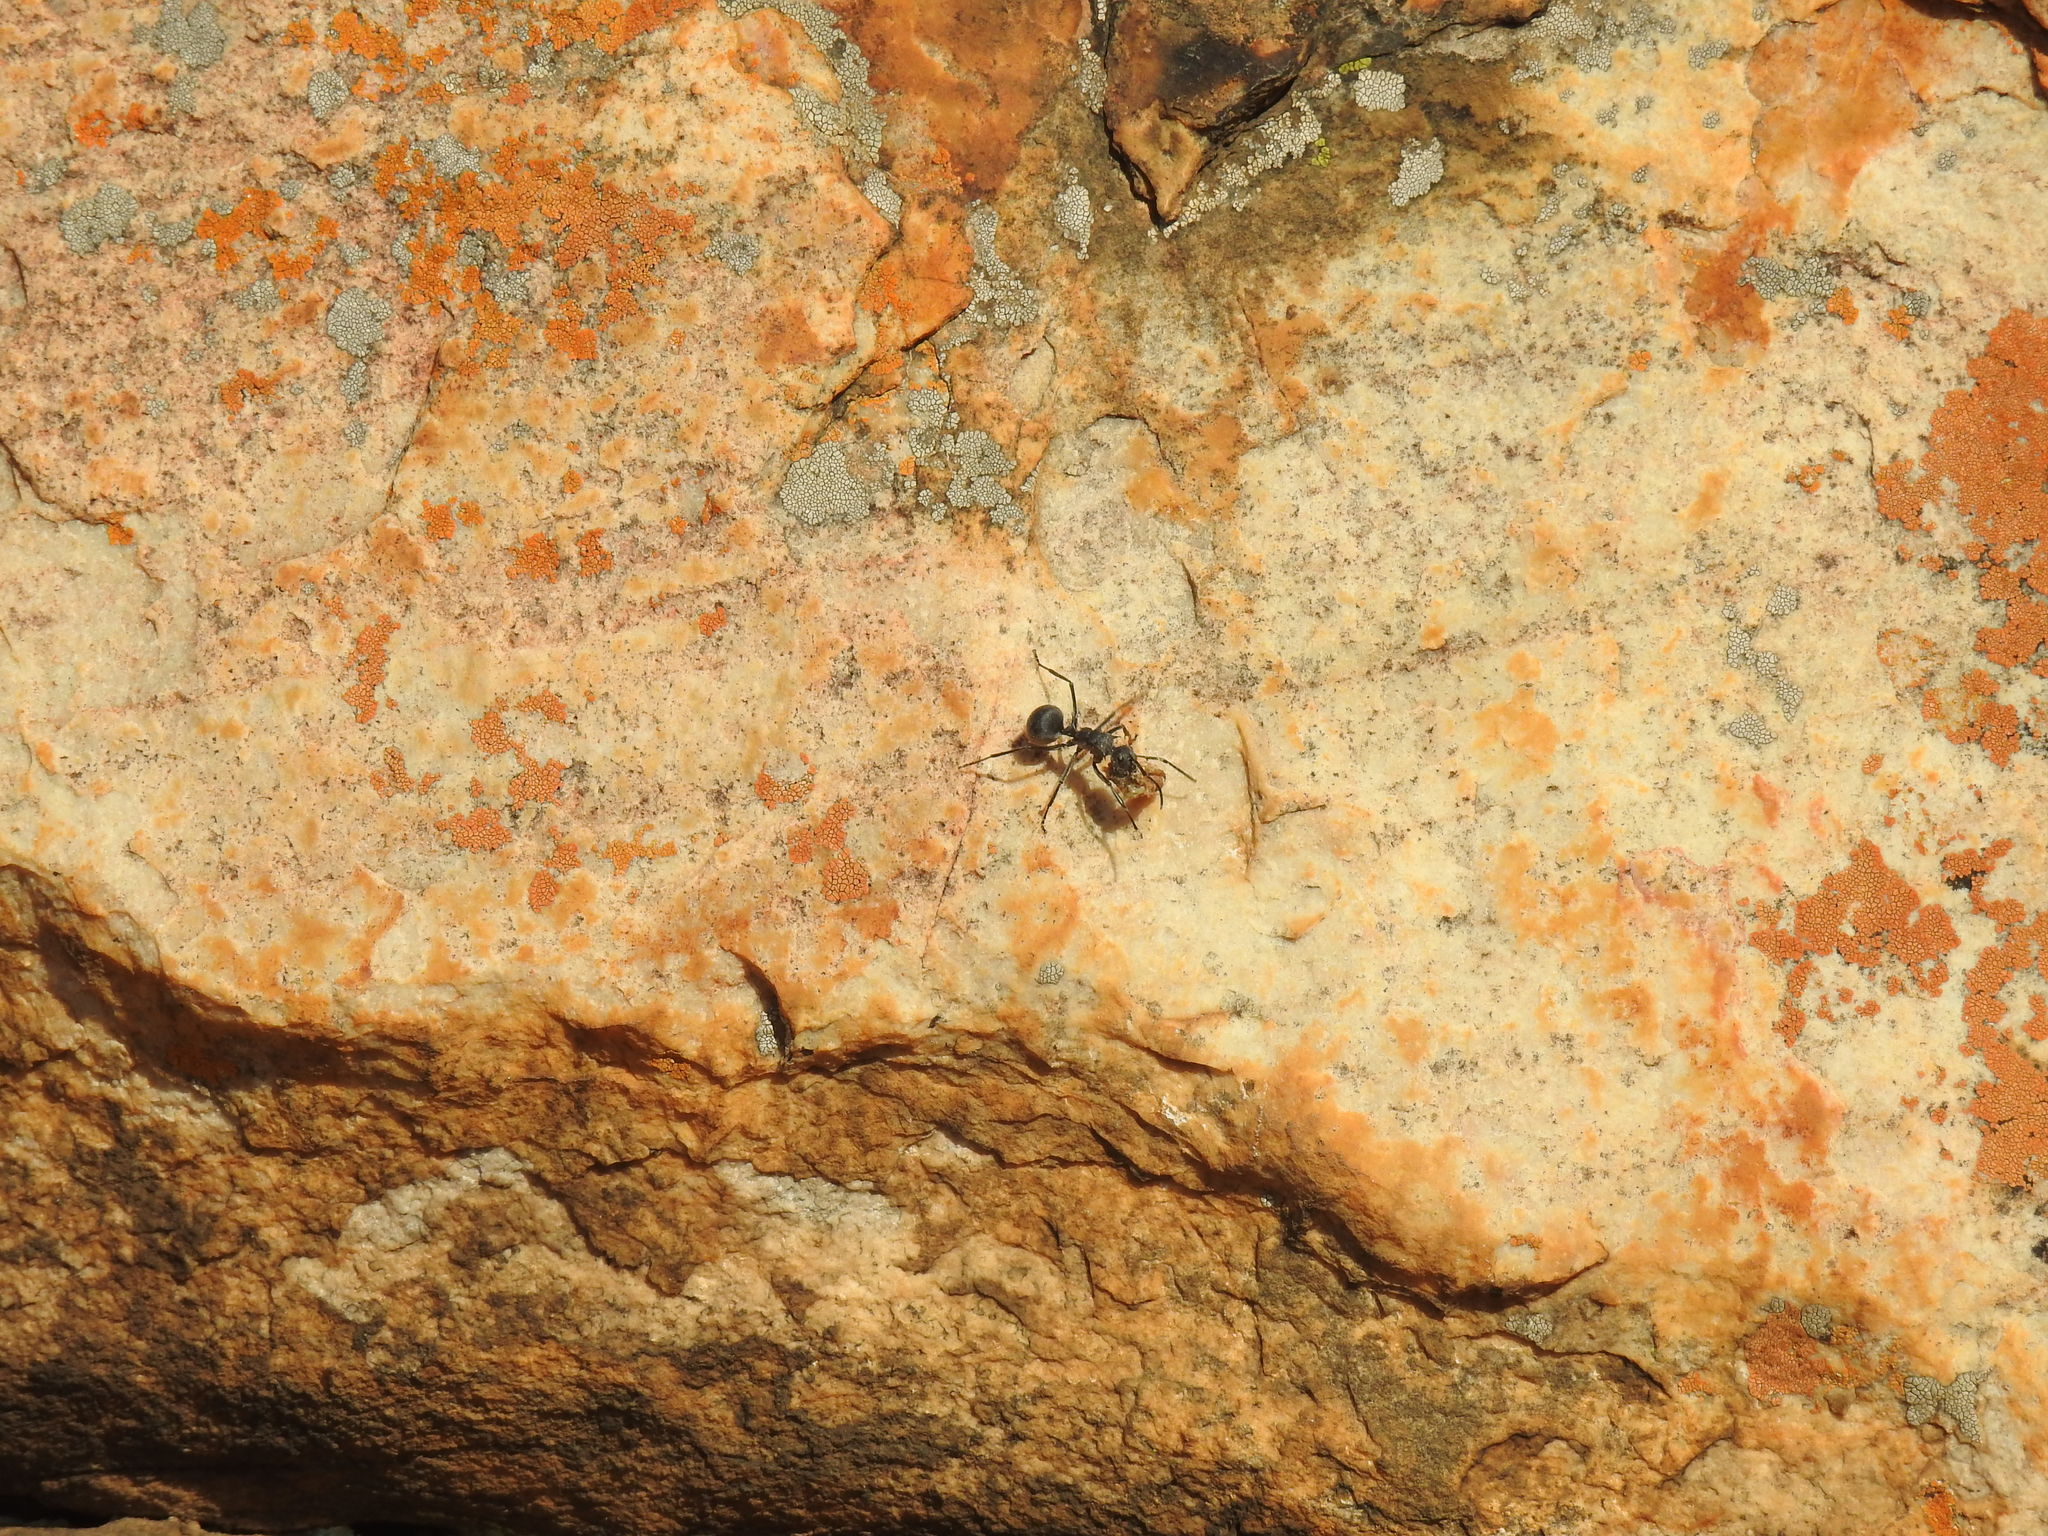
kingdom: Animalia
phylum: Arthropoda
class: Insecta
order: Hymenoptera
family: Formicidae
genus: Polyrhachis
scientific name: Polyrhachis schistacea
